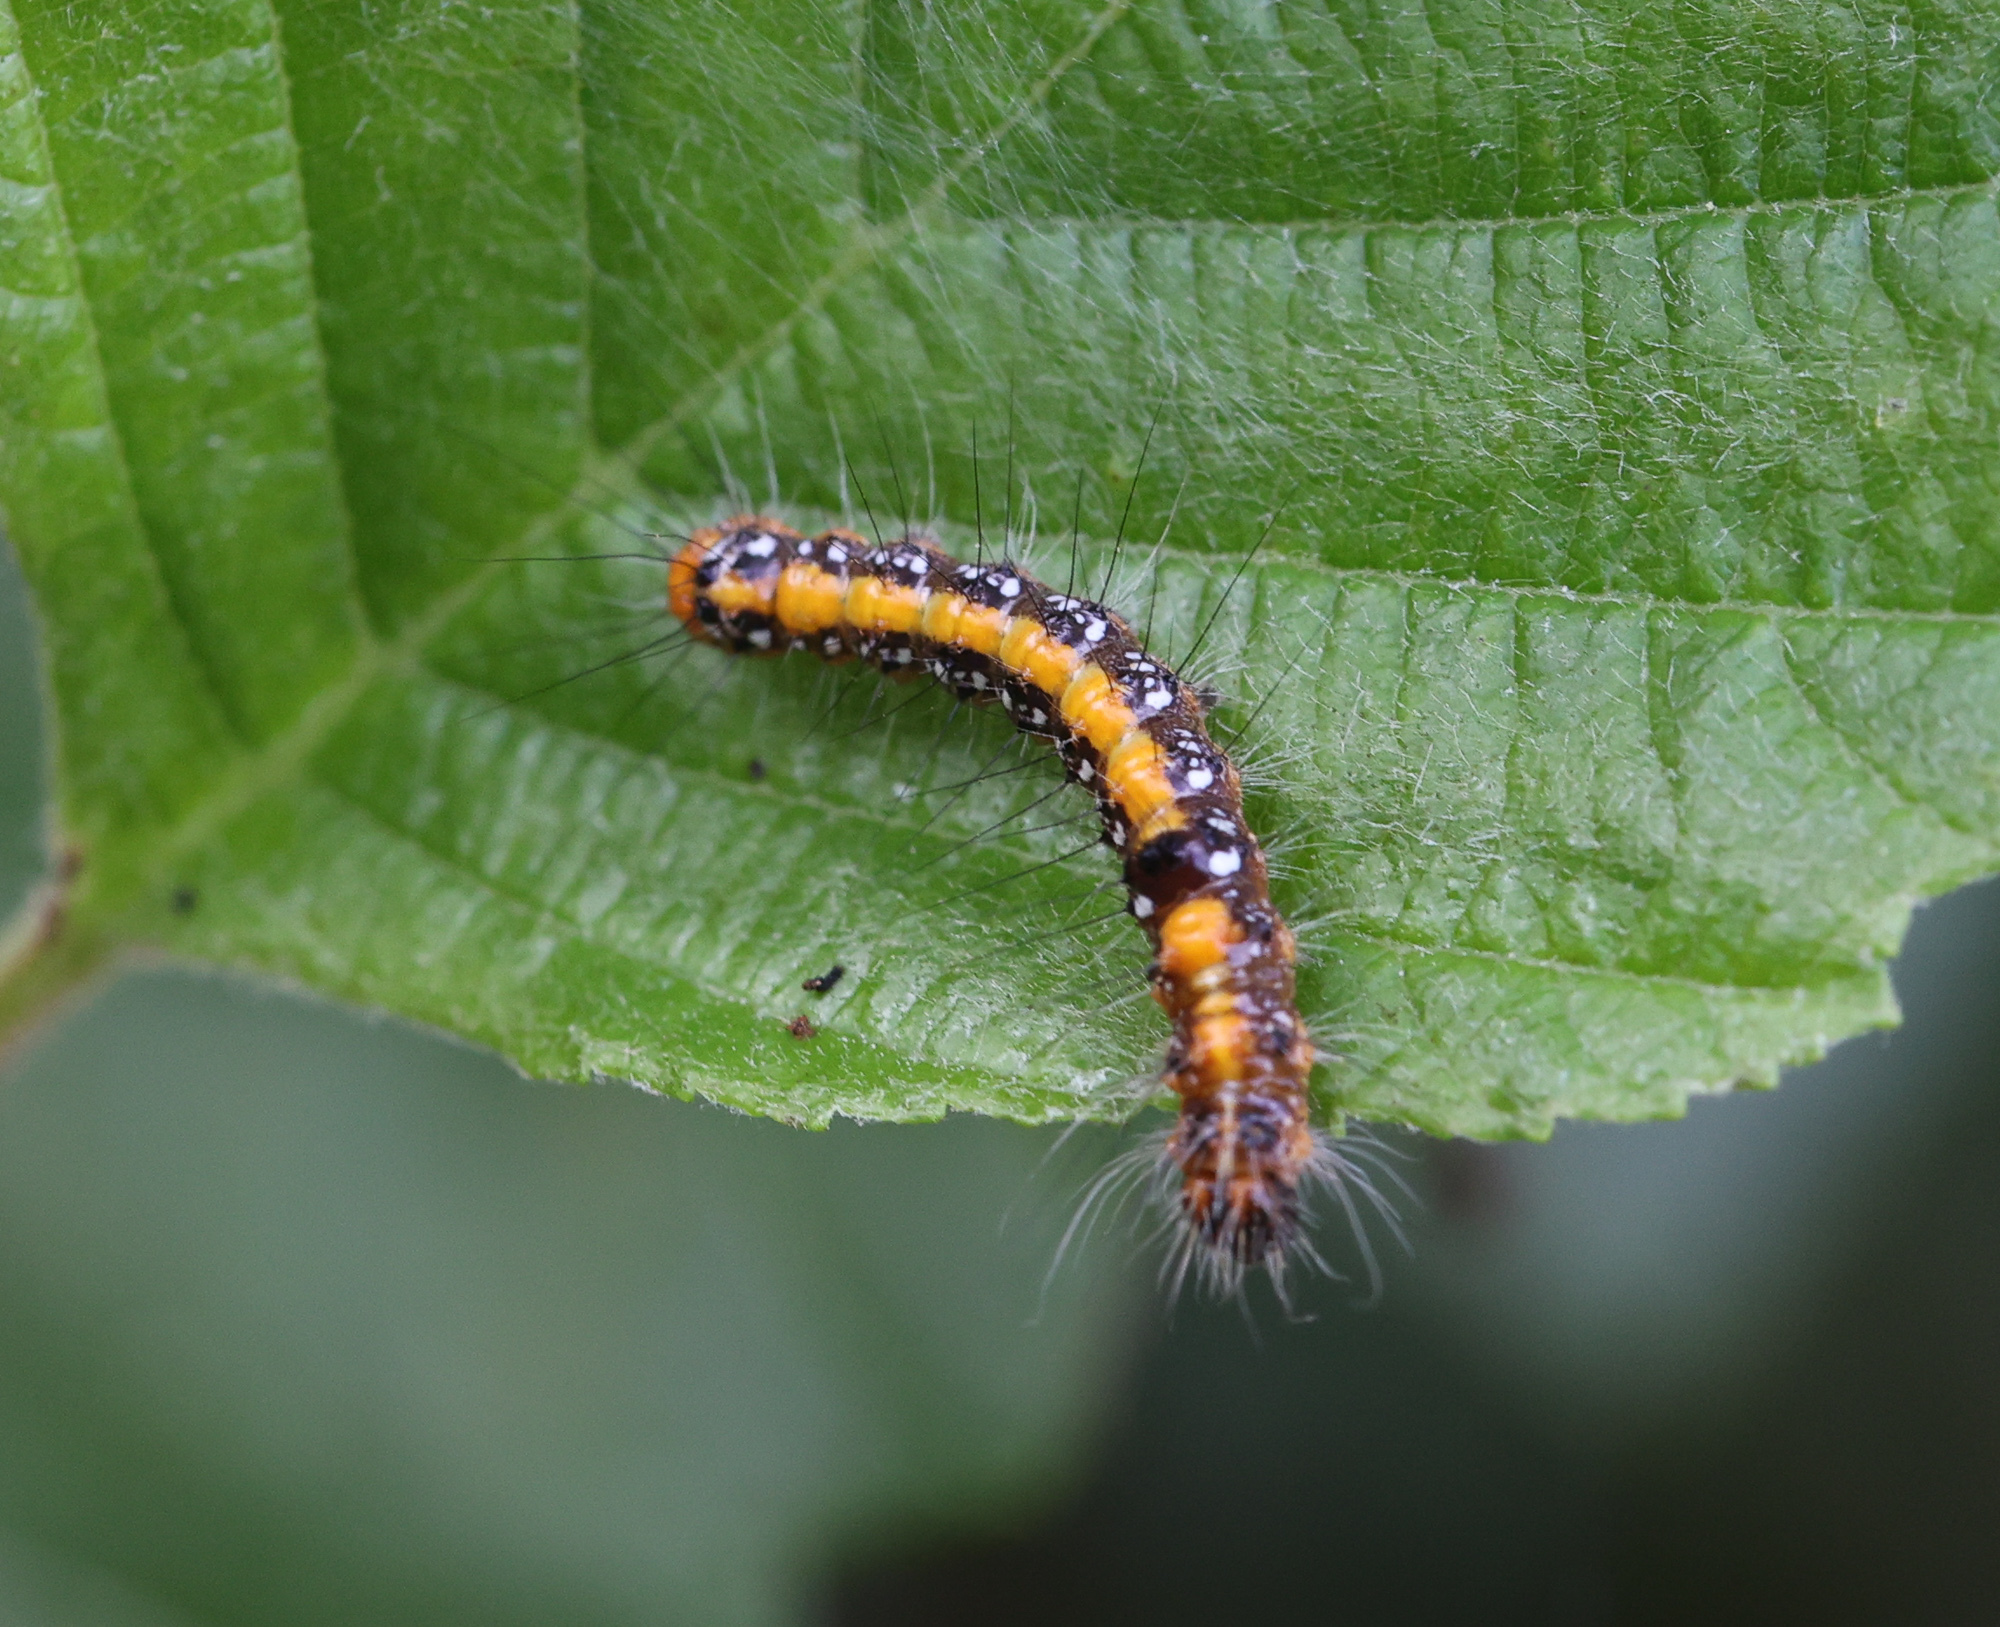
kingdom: Animalia
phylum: Arthropoda
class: Insecta
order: Lepidoptera
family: Noctuidae
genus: Acronicta
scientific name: Acronicta tridens
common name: Dark dagger
